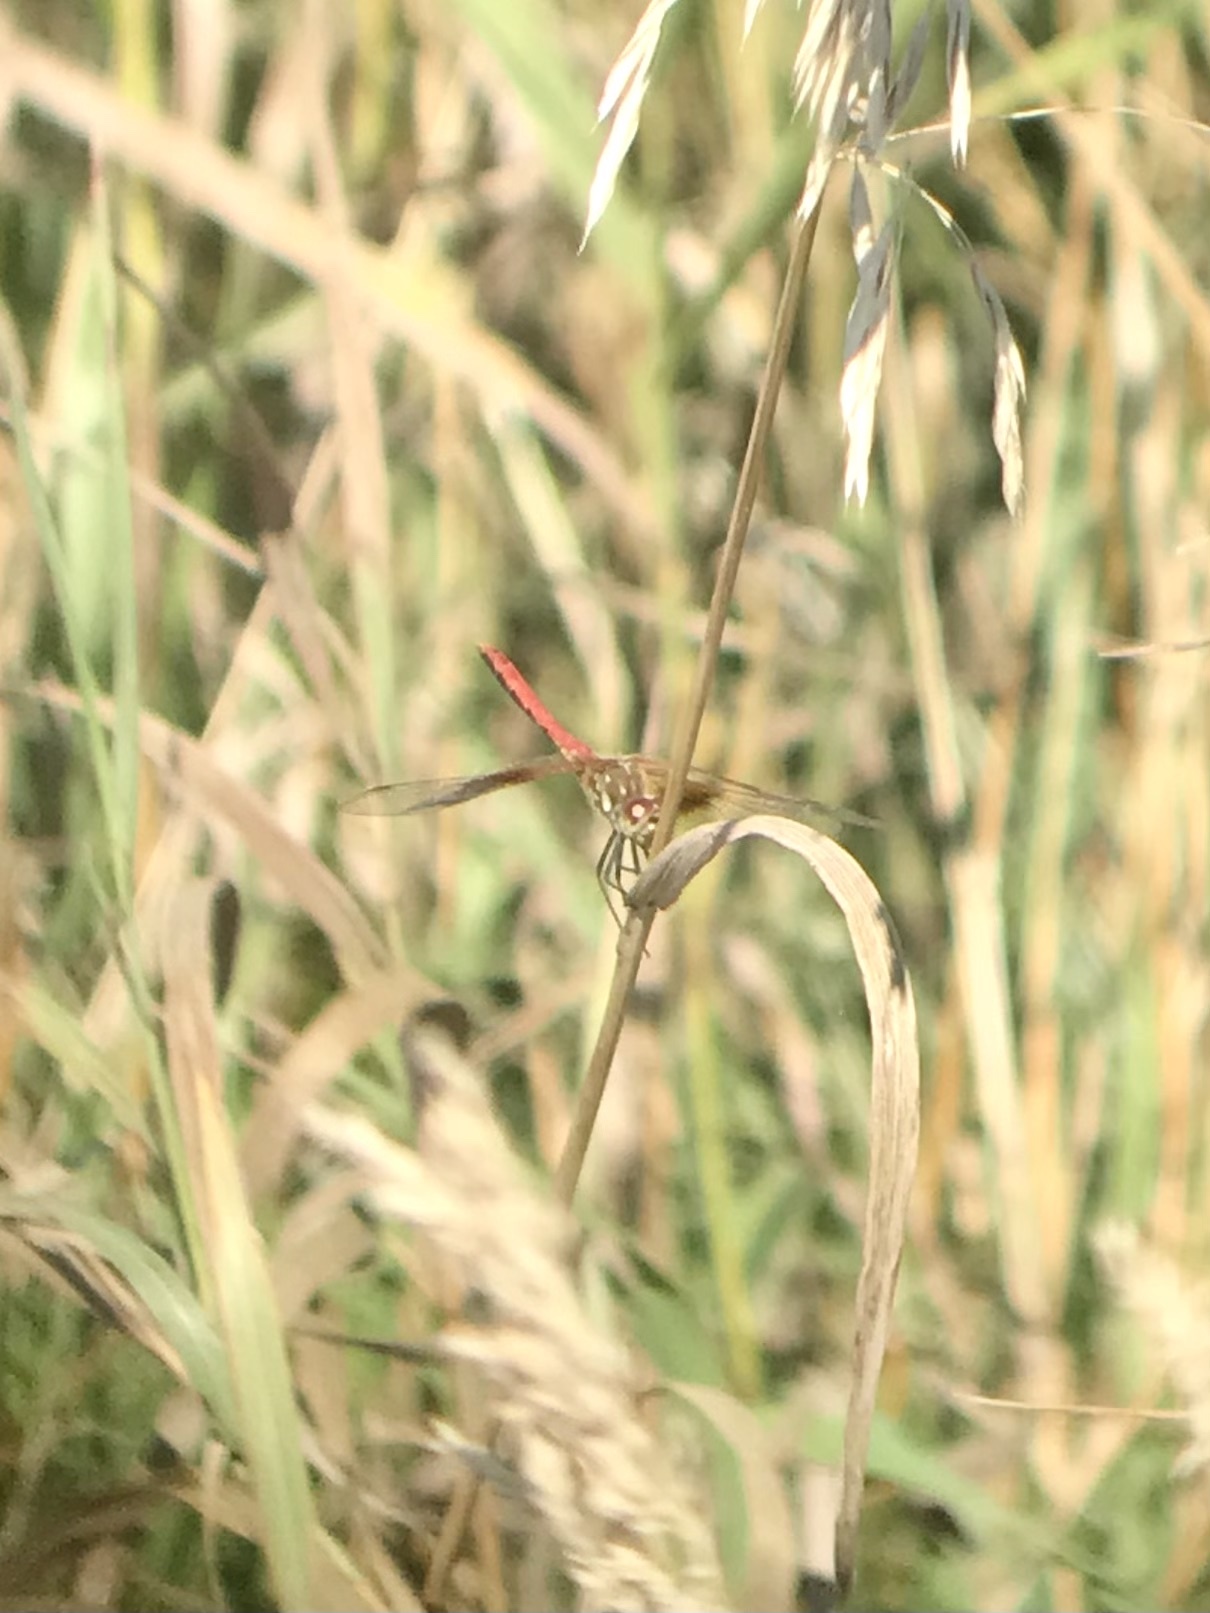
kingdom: Animalia
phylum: Arthropoda
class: Insecta
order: Odonata
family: Libellulidae
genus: Sympetrum
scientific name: Sympetrum semicinctum
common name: Band-winged meadowhawk
